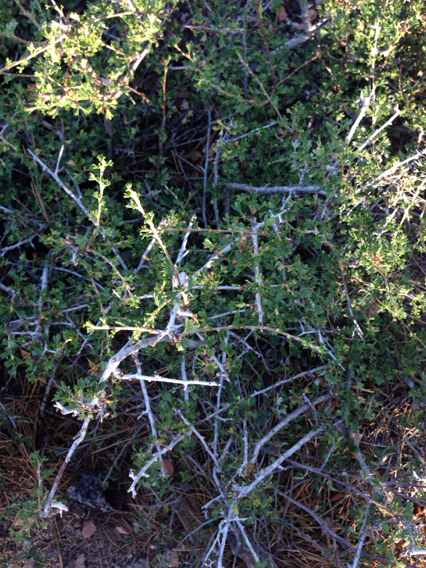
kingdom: Plantae
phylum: Tracheophyta
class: Magnoliopsida
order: Rosales
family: Rosaceae
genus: Purshia
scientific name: Purshia tridentata
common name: Antelope bitterbrush
